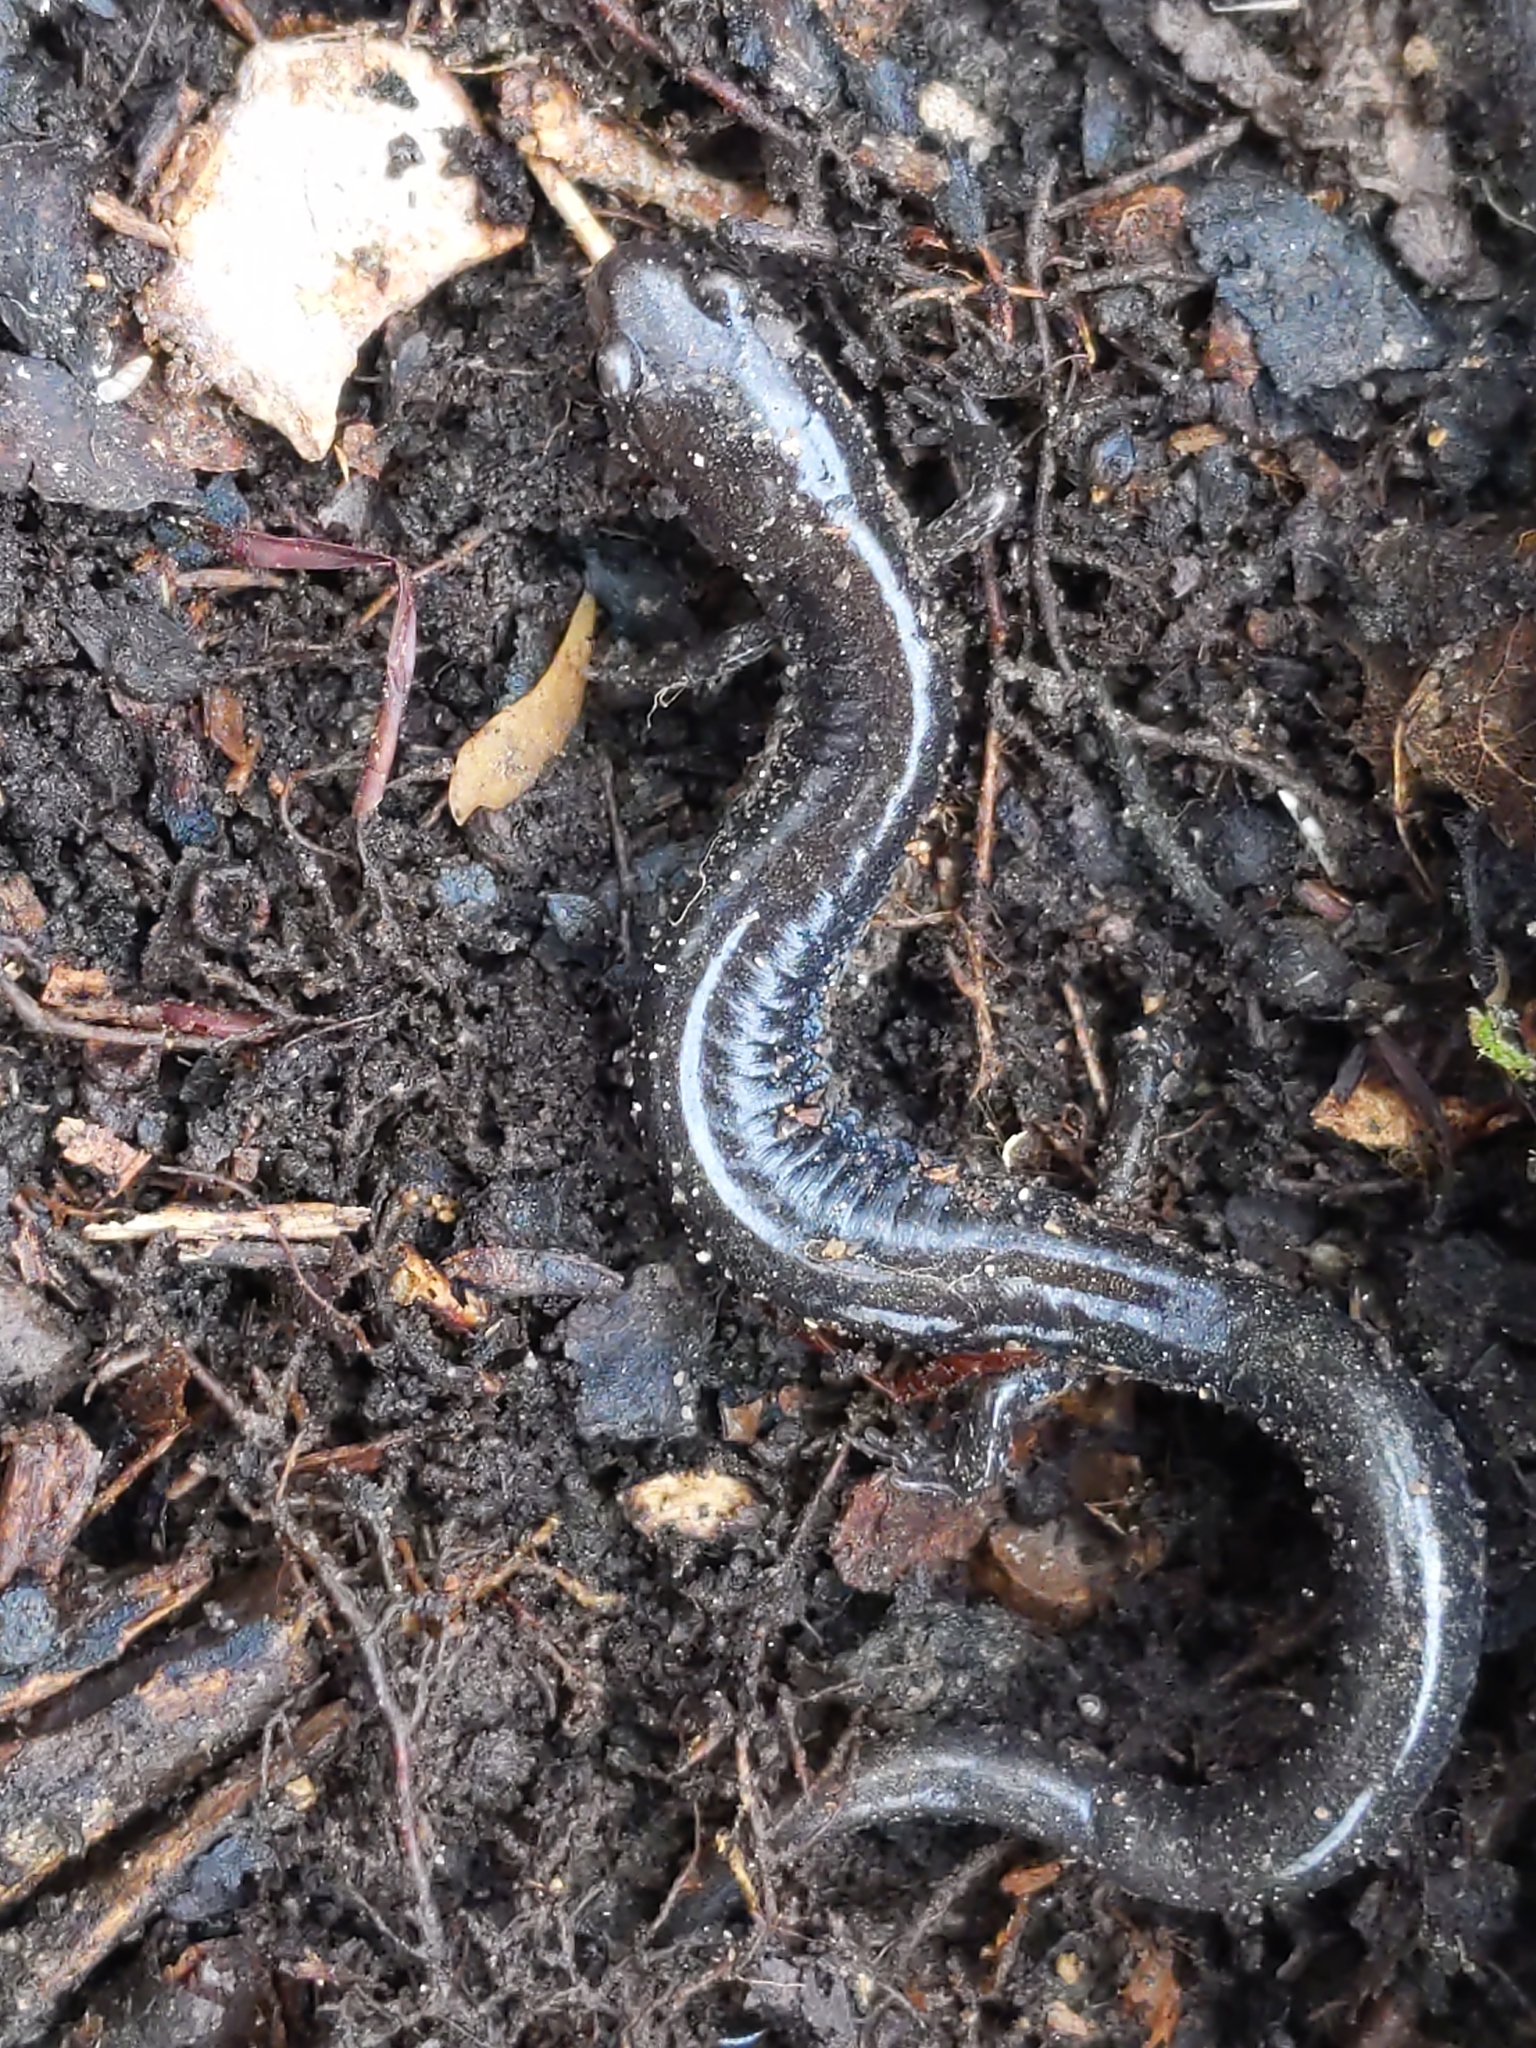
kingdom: Animalia
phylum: Chordata
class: Amphibia
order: Caudata
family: Plethodontidae
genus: Plethodon
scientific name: Plethodon cinereus
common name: Redback salamander
